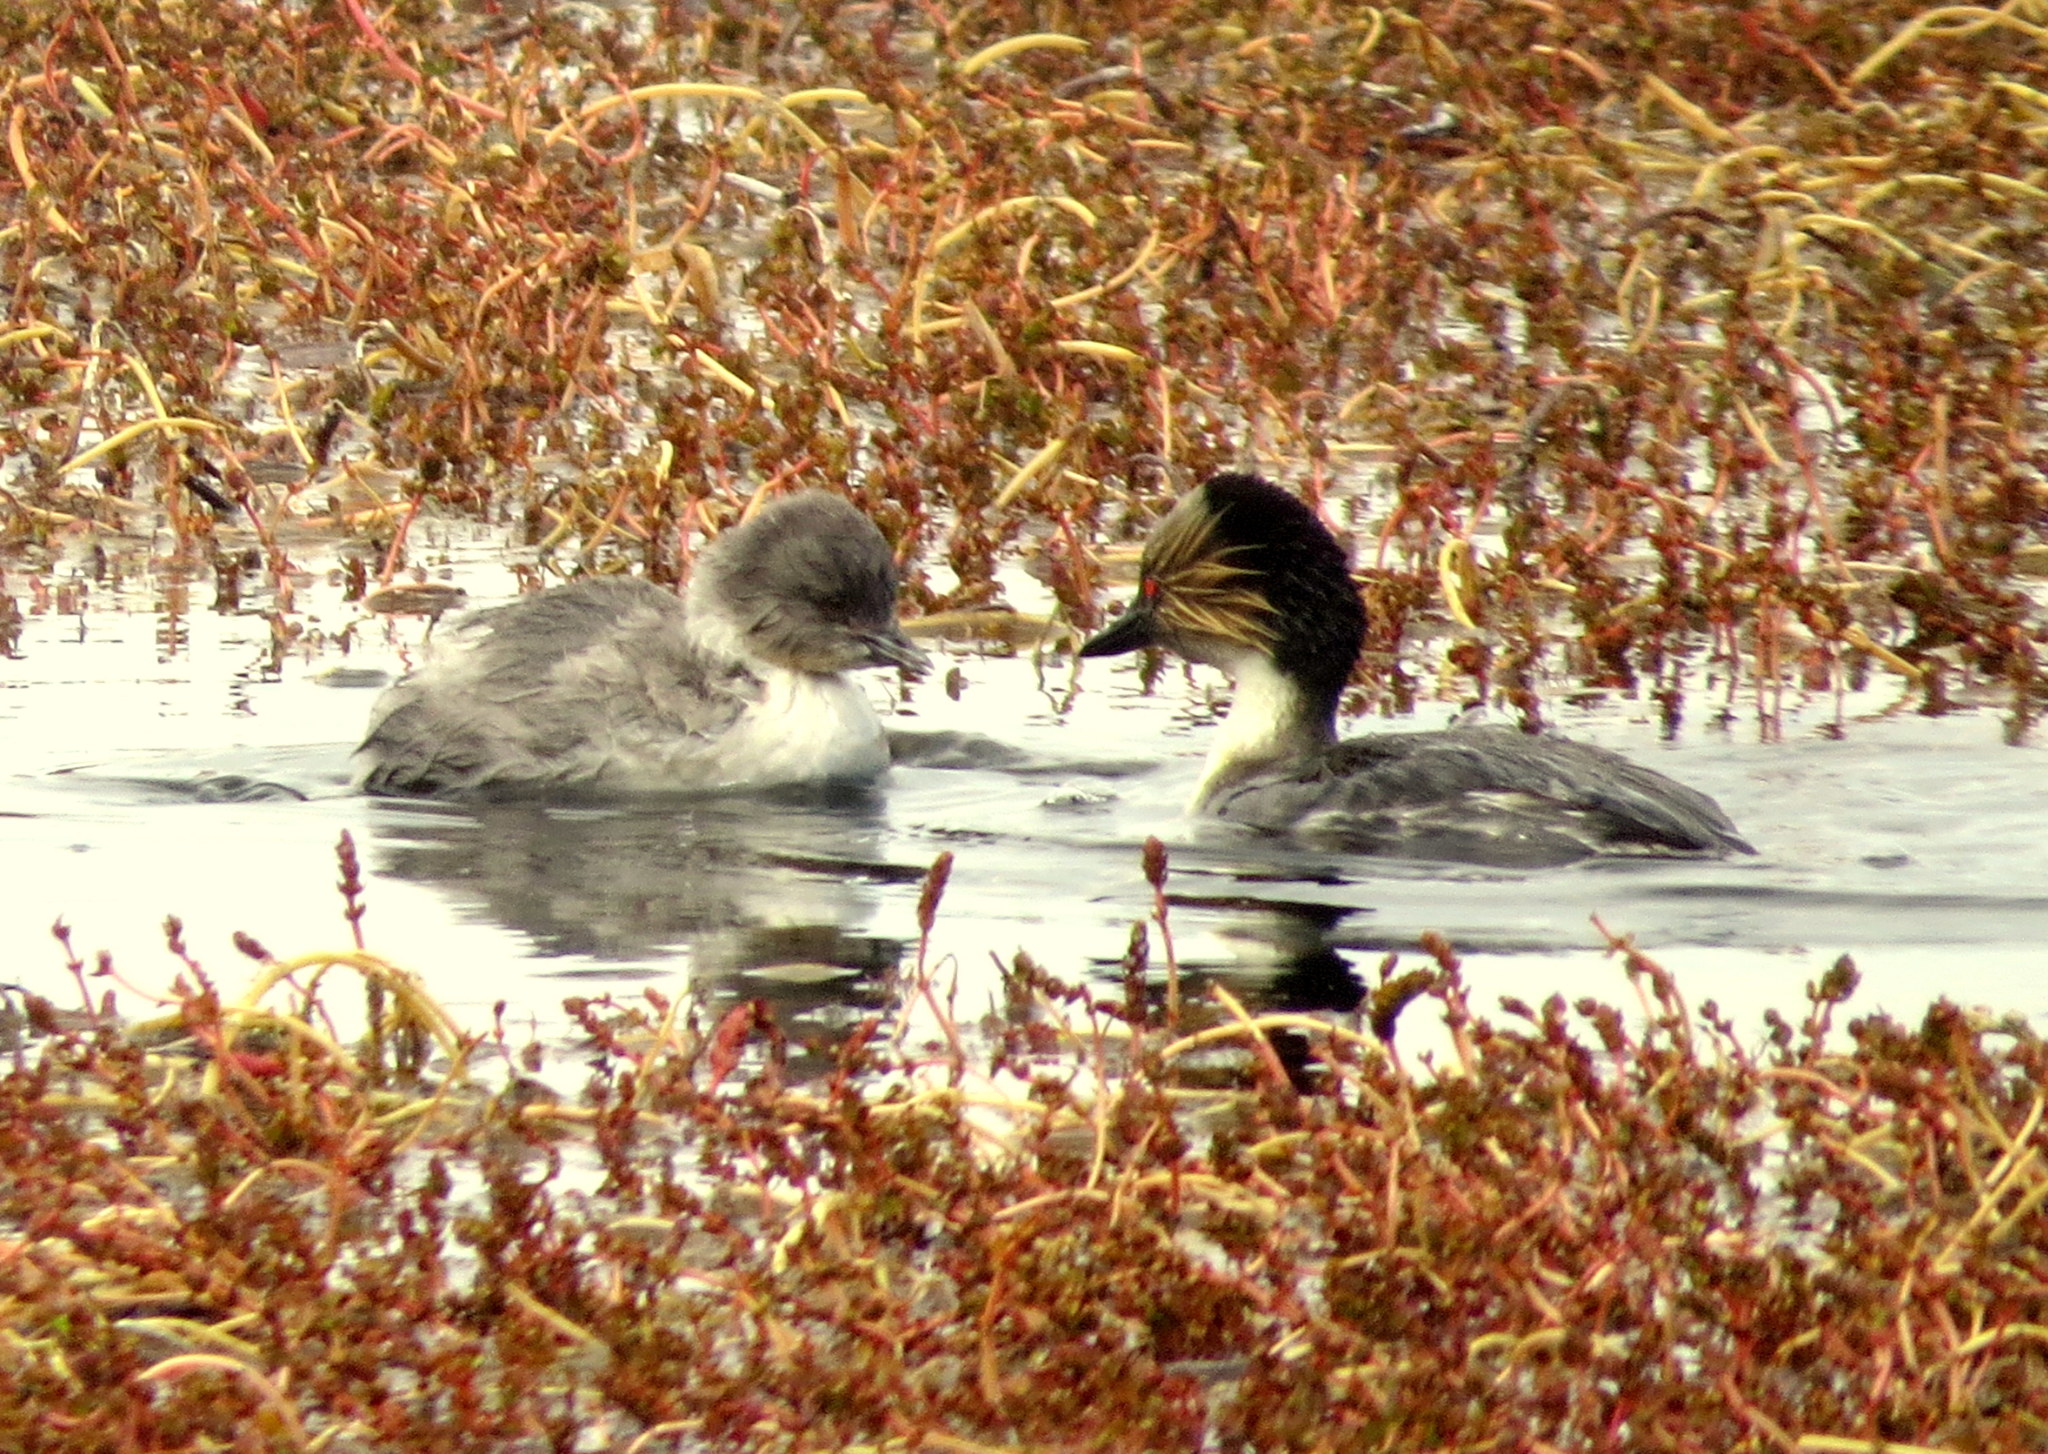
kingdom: Animalia
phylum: Chordata
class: Aves
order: Podicipediformes
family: Podicipedidae
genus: Podiceps
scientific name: Podiceps occipitalis
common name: Silvery grebe
